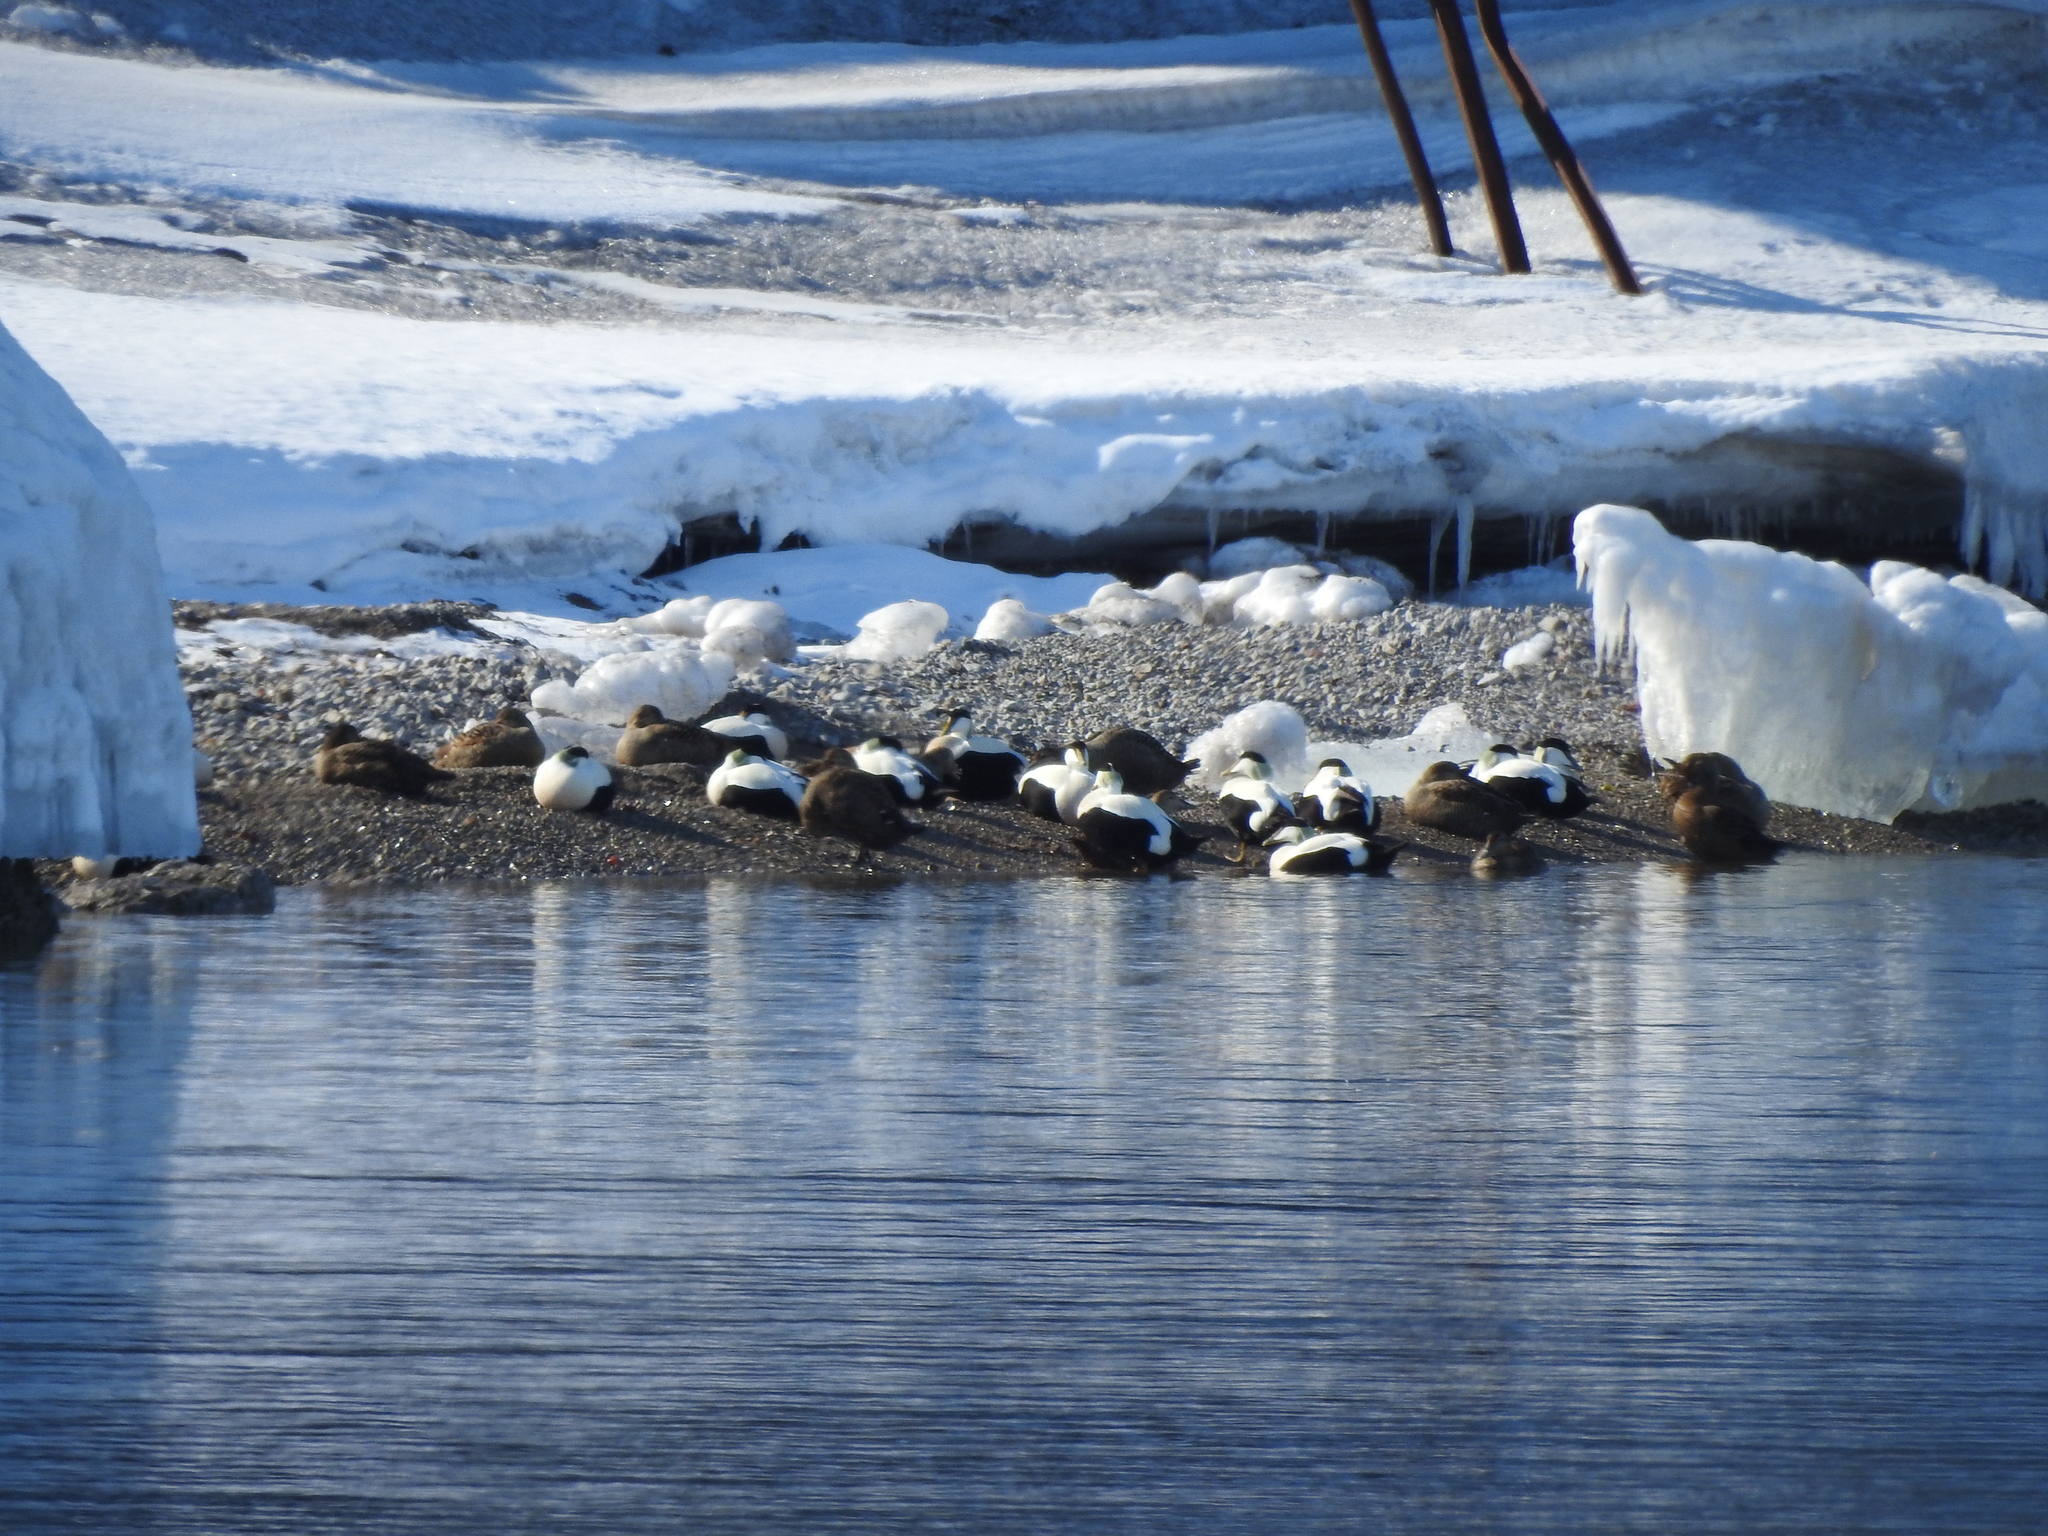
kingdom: Animalia
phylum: Chordata
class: Aves
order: Anseriformes
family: Anatidae
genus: Somateria
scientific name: Somateria mollissima
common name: Common eider
